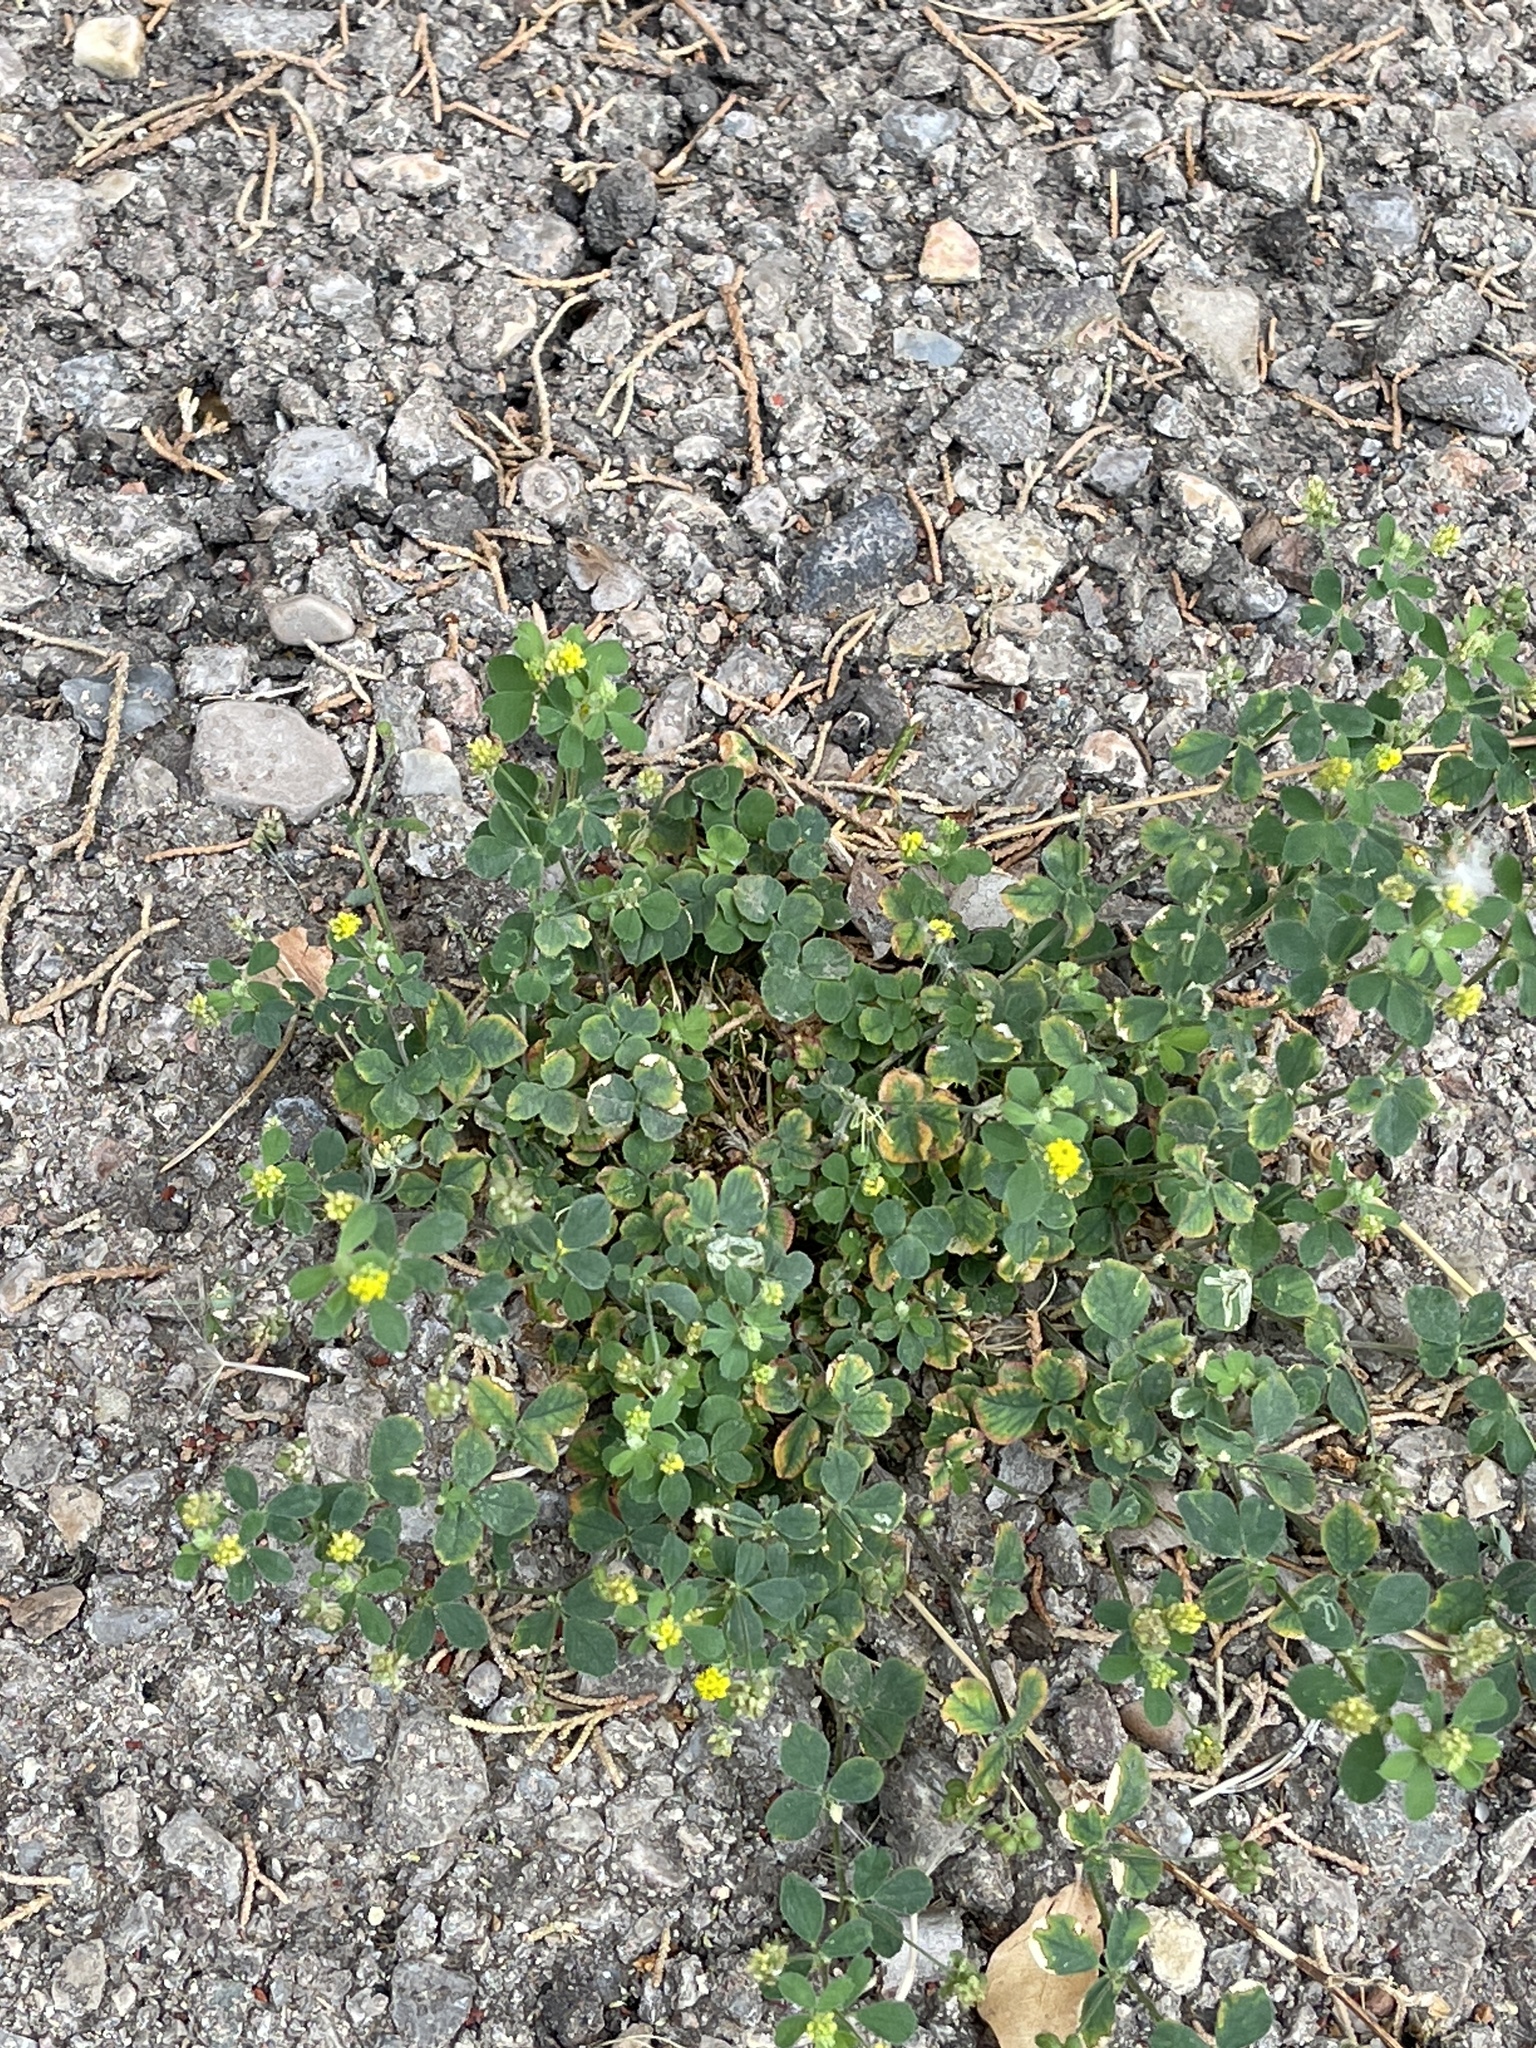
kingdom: Plantae
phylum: Tracheophyta
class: Magnoliopsida
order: Fabales
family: Fabaceae
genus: Medicago
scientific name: Medicago lupulina
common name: Black medick
